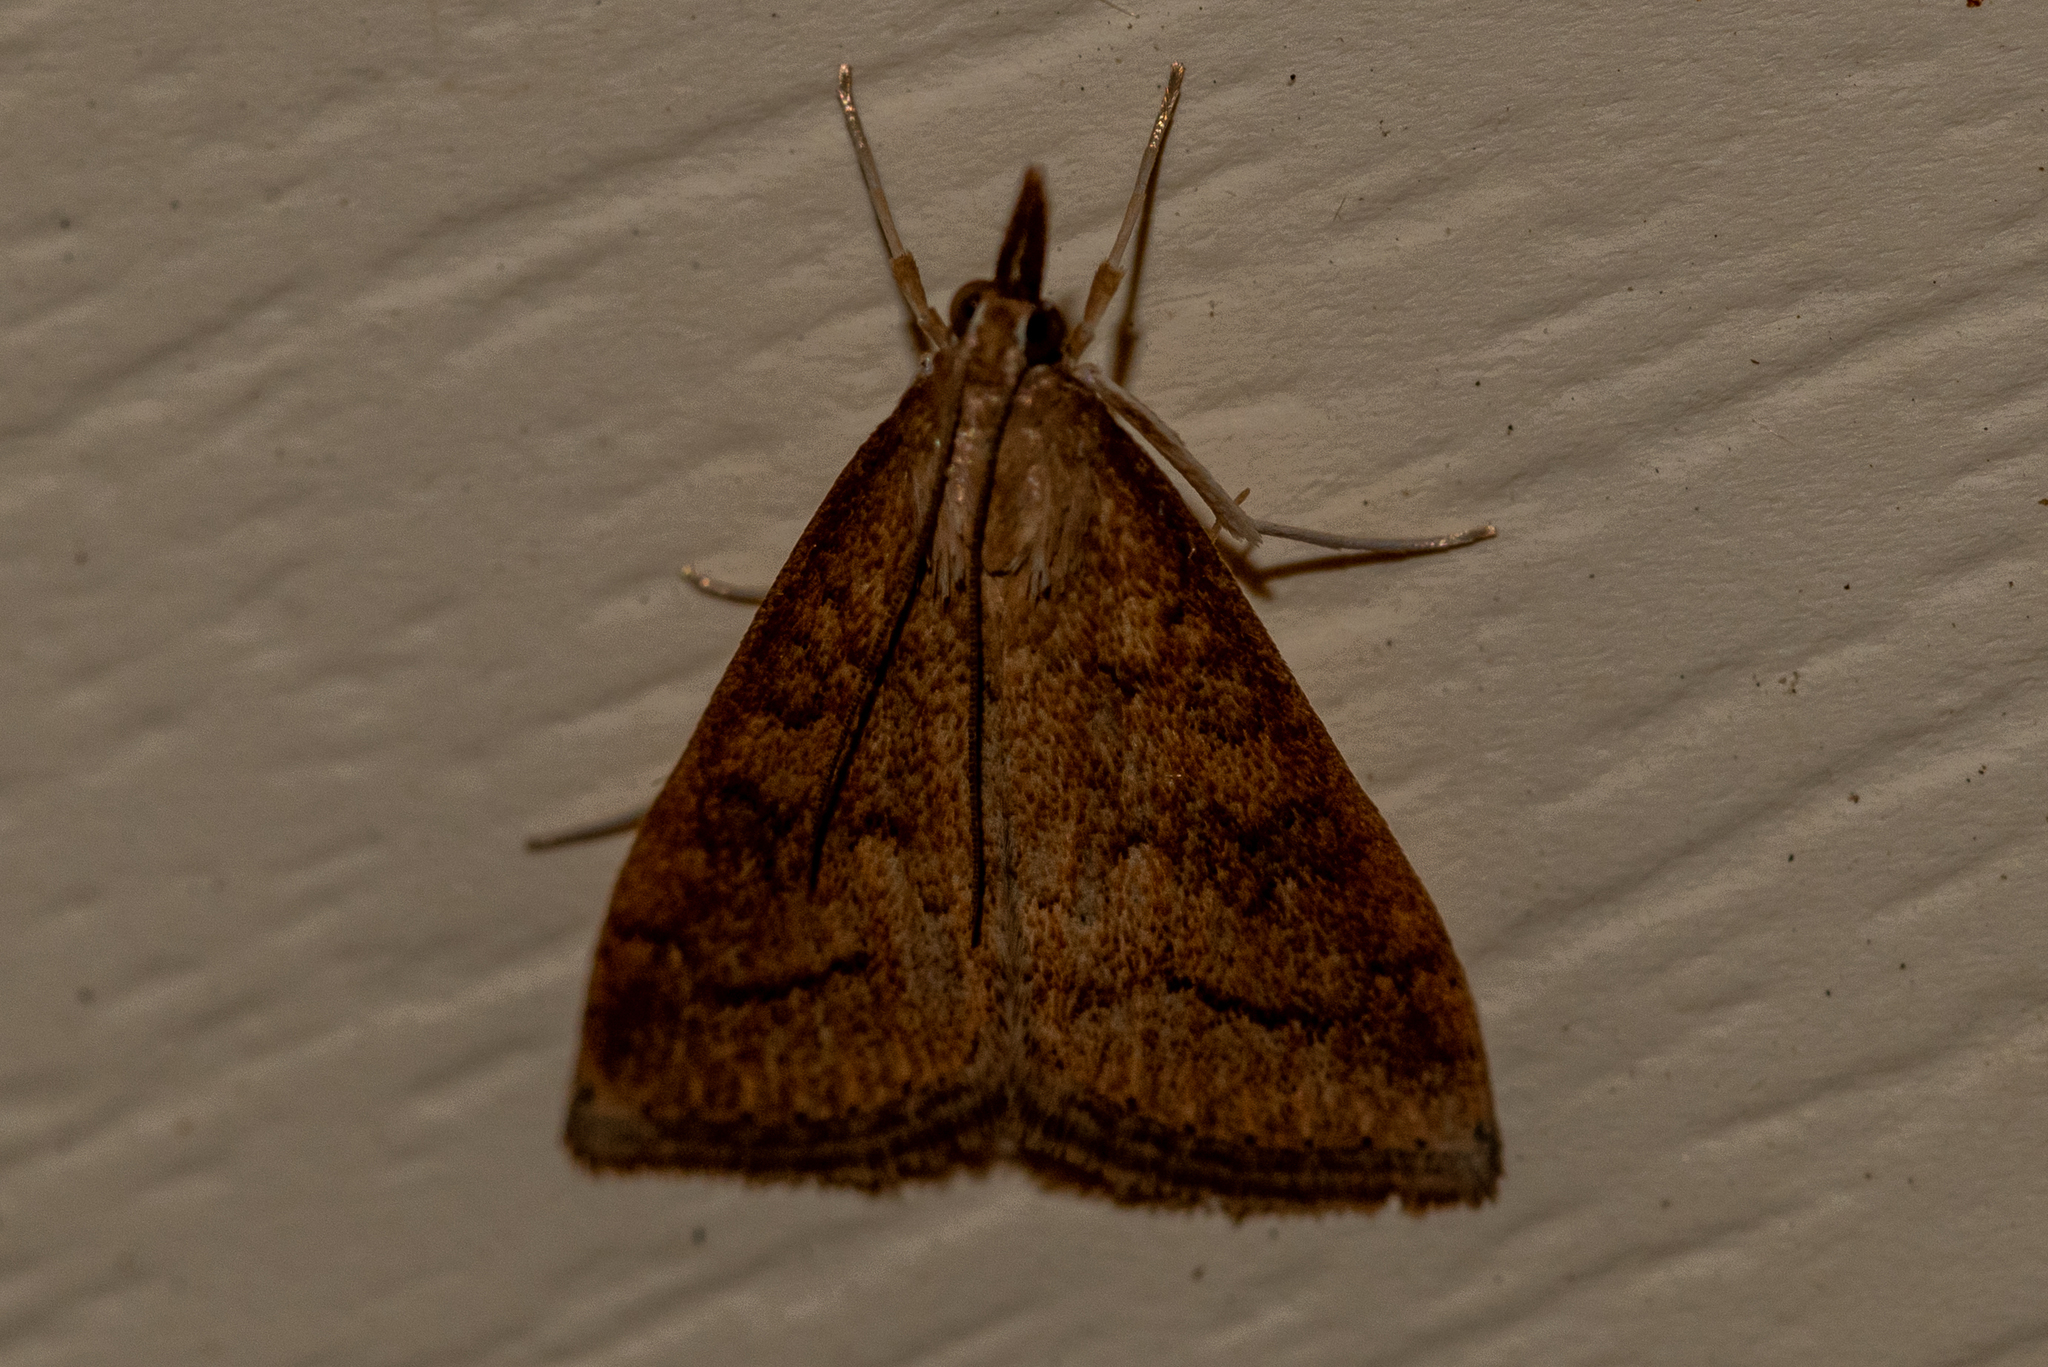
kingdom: Animalia
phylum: Arthropoda
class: Insecta
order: Lepidoptera
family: Crambidae
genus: Udea
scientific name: Udea rubigalis
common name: Celery leaftier moth
